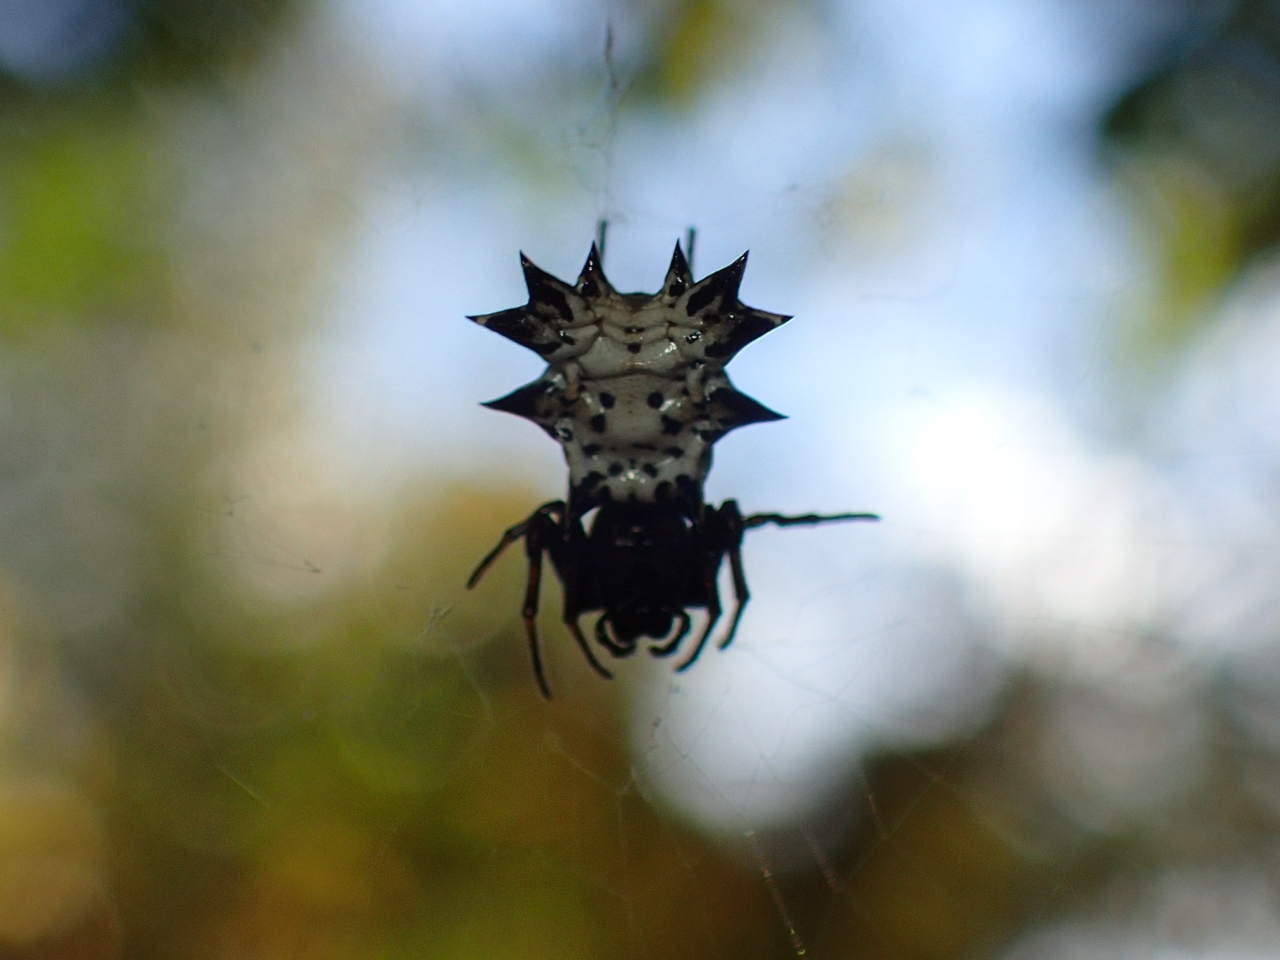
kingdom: Animalia
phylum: Arthropoda
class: Arachnida
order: Araneae
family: Araneidae
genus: Micrathena
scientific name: Micrathena gracilis
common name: Orb weavers
